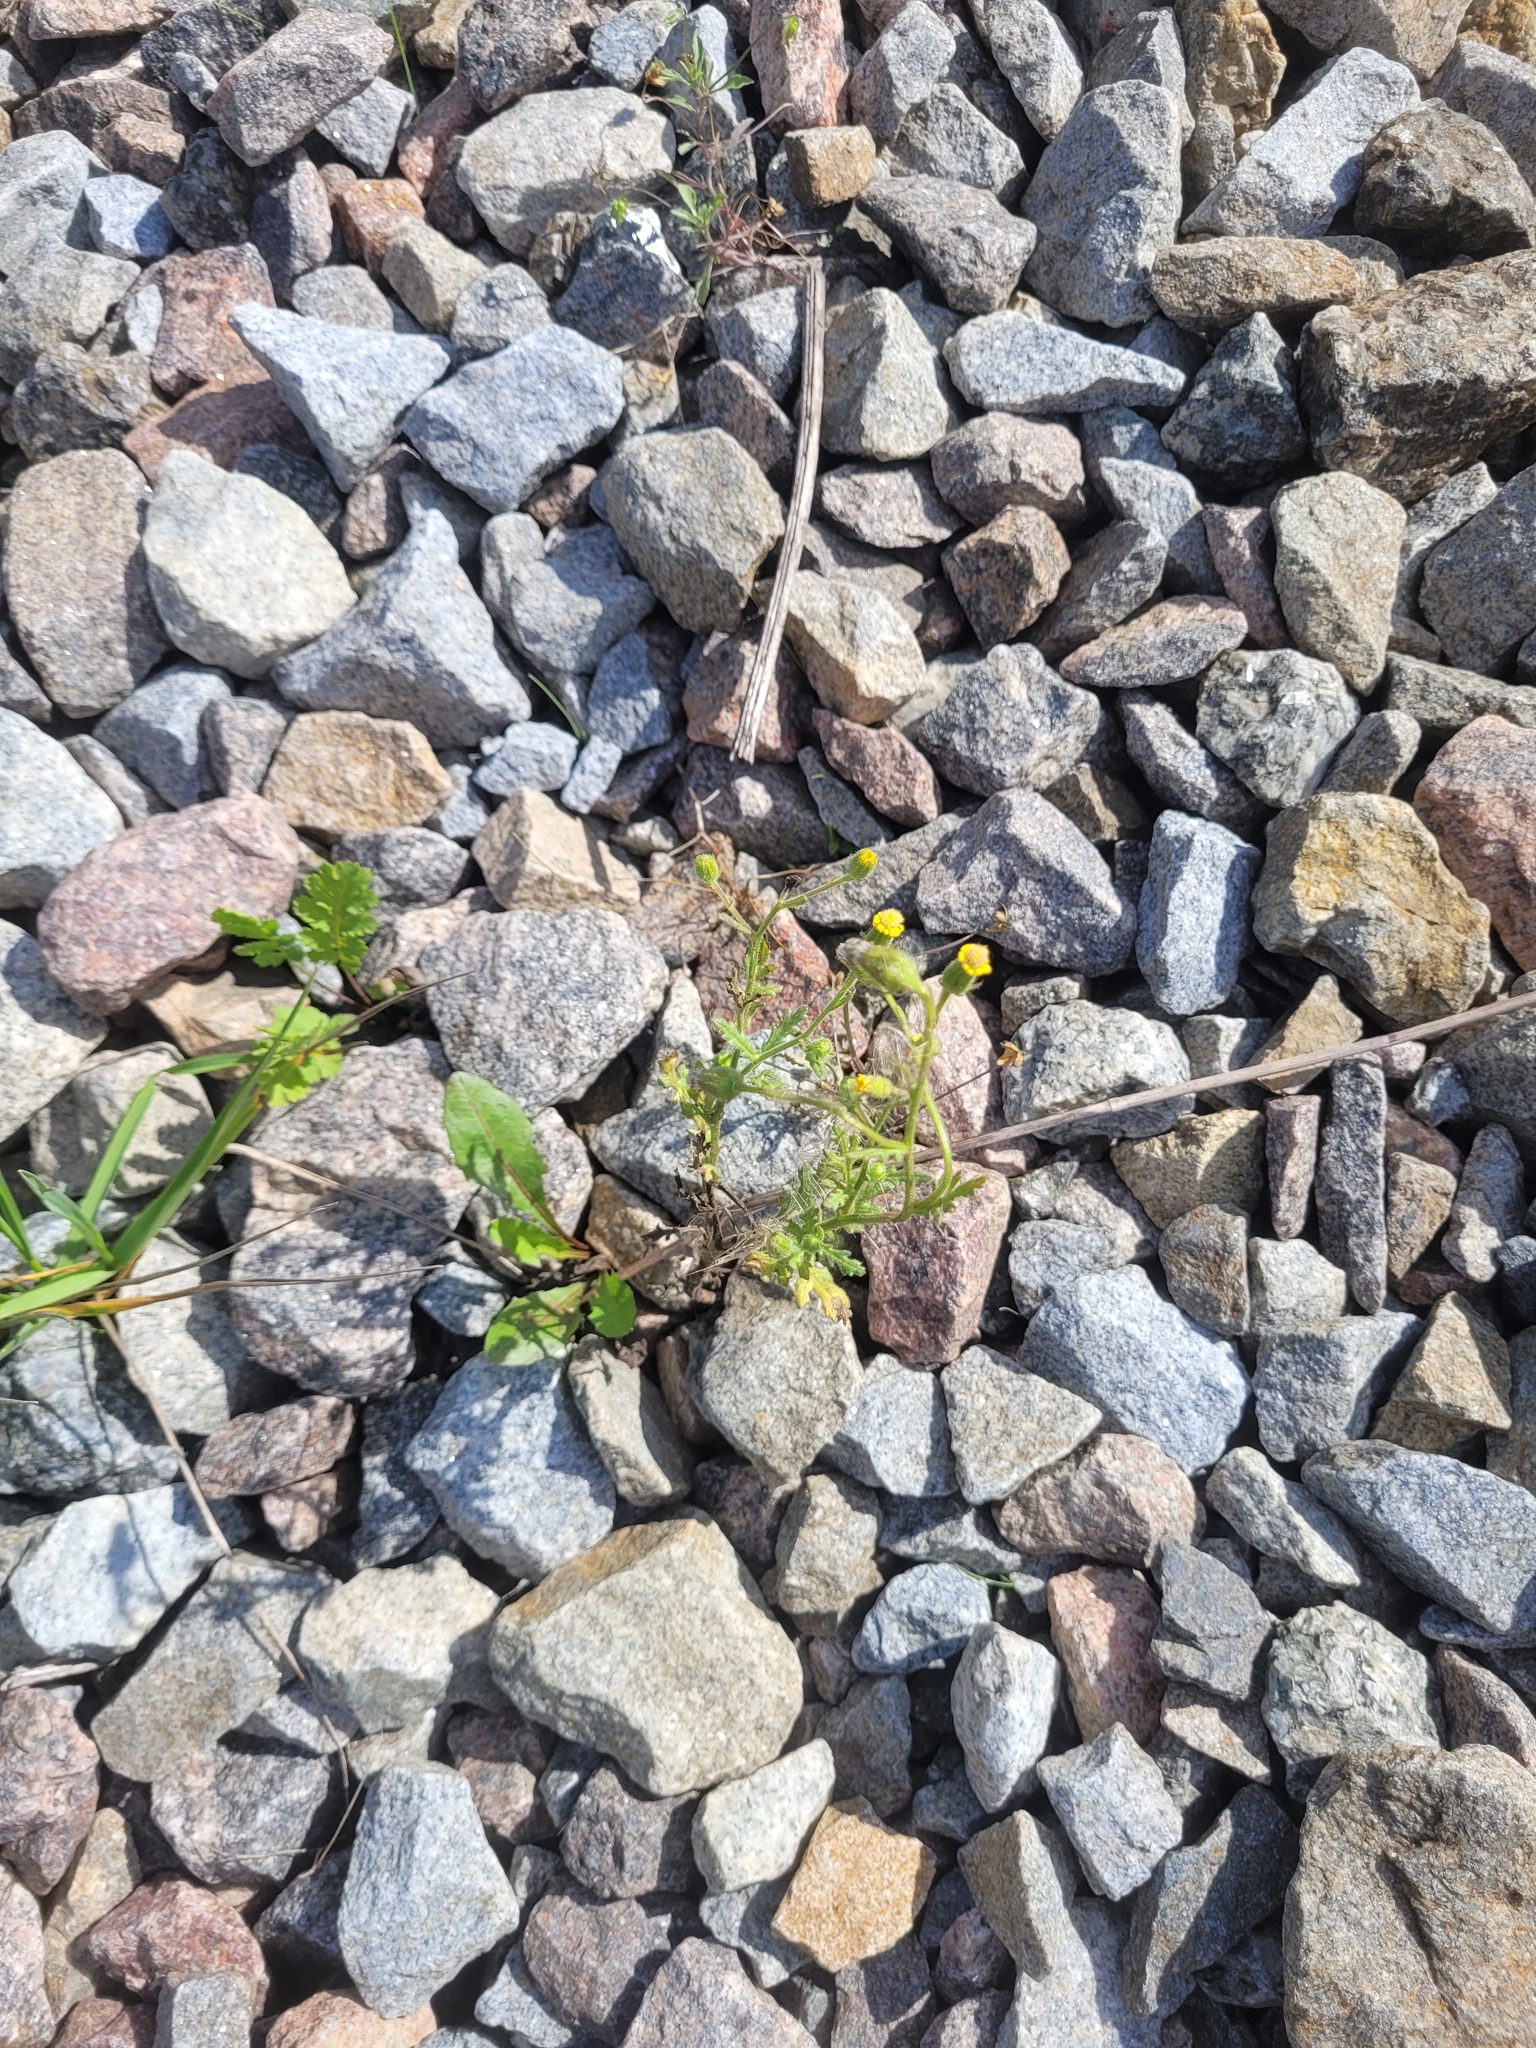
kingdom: Plantae
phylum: Tracheophyta
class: Magnoliopsida
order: Asterales
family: Asteraceae
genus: Senecio
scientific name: Senecio viscosus
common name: Sticky groundsel
